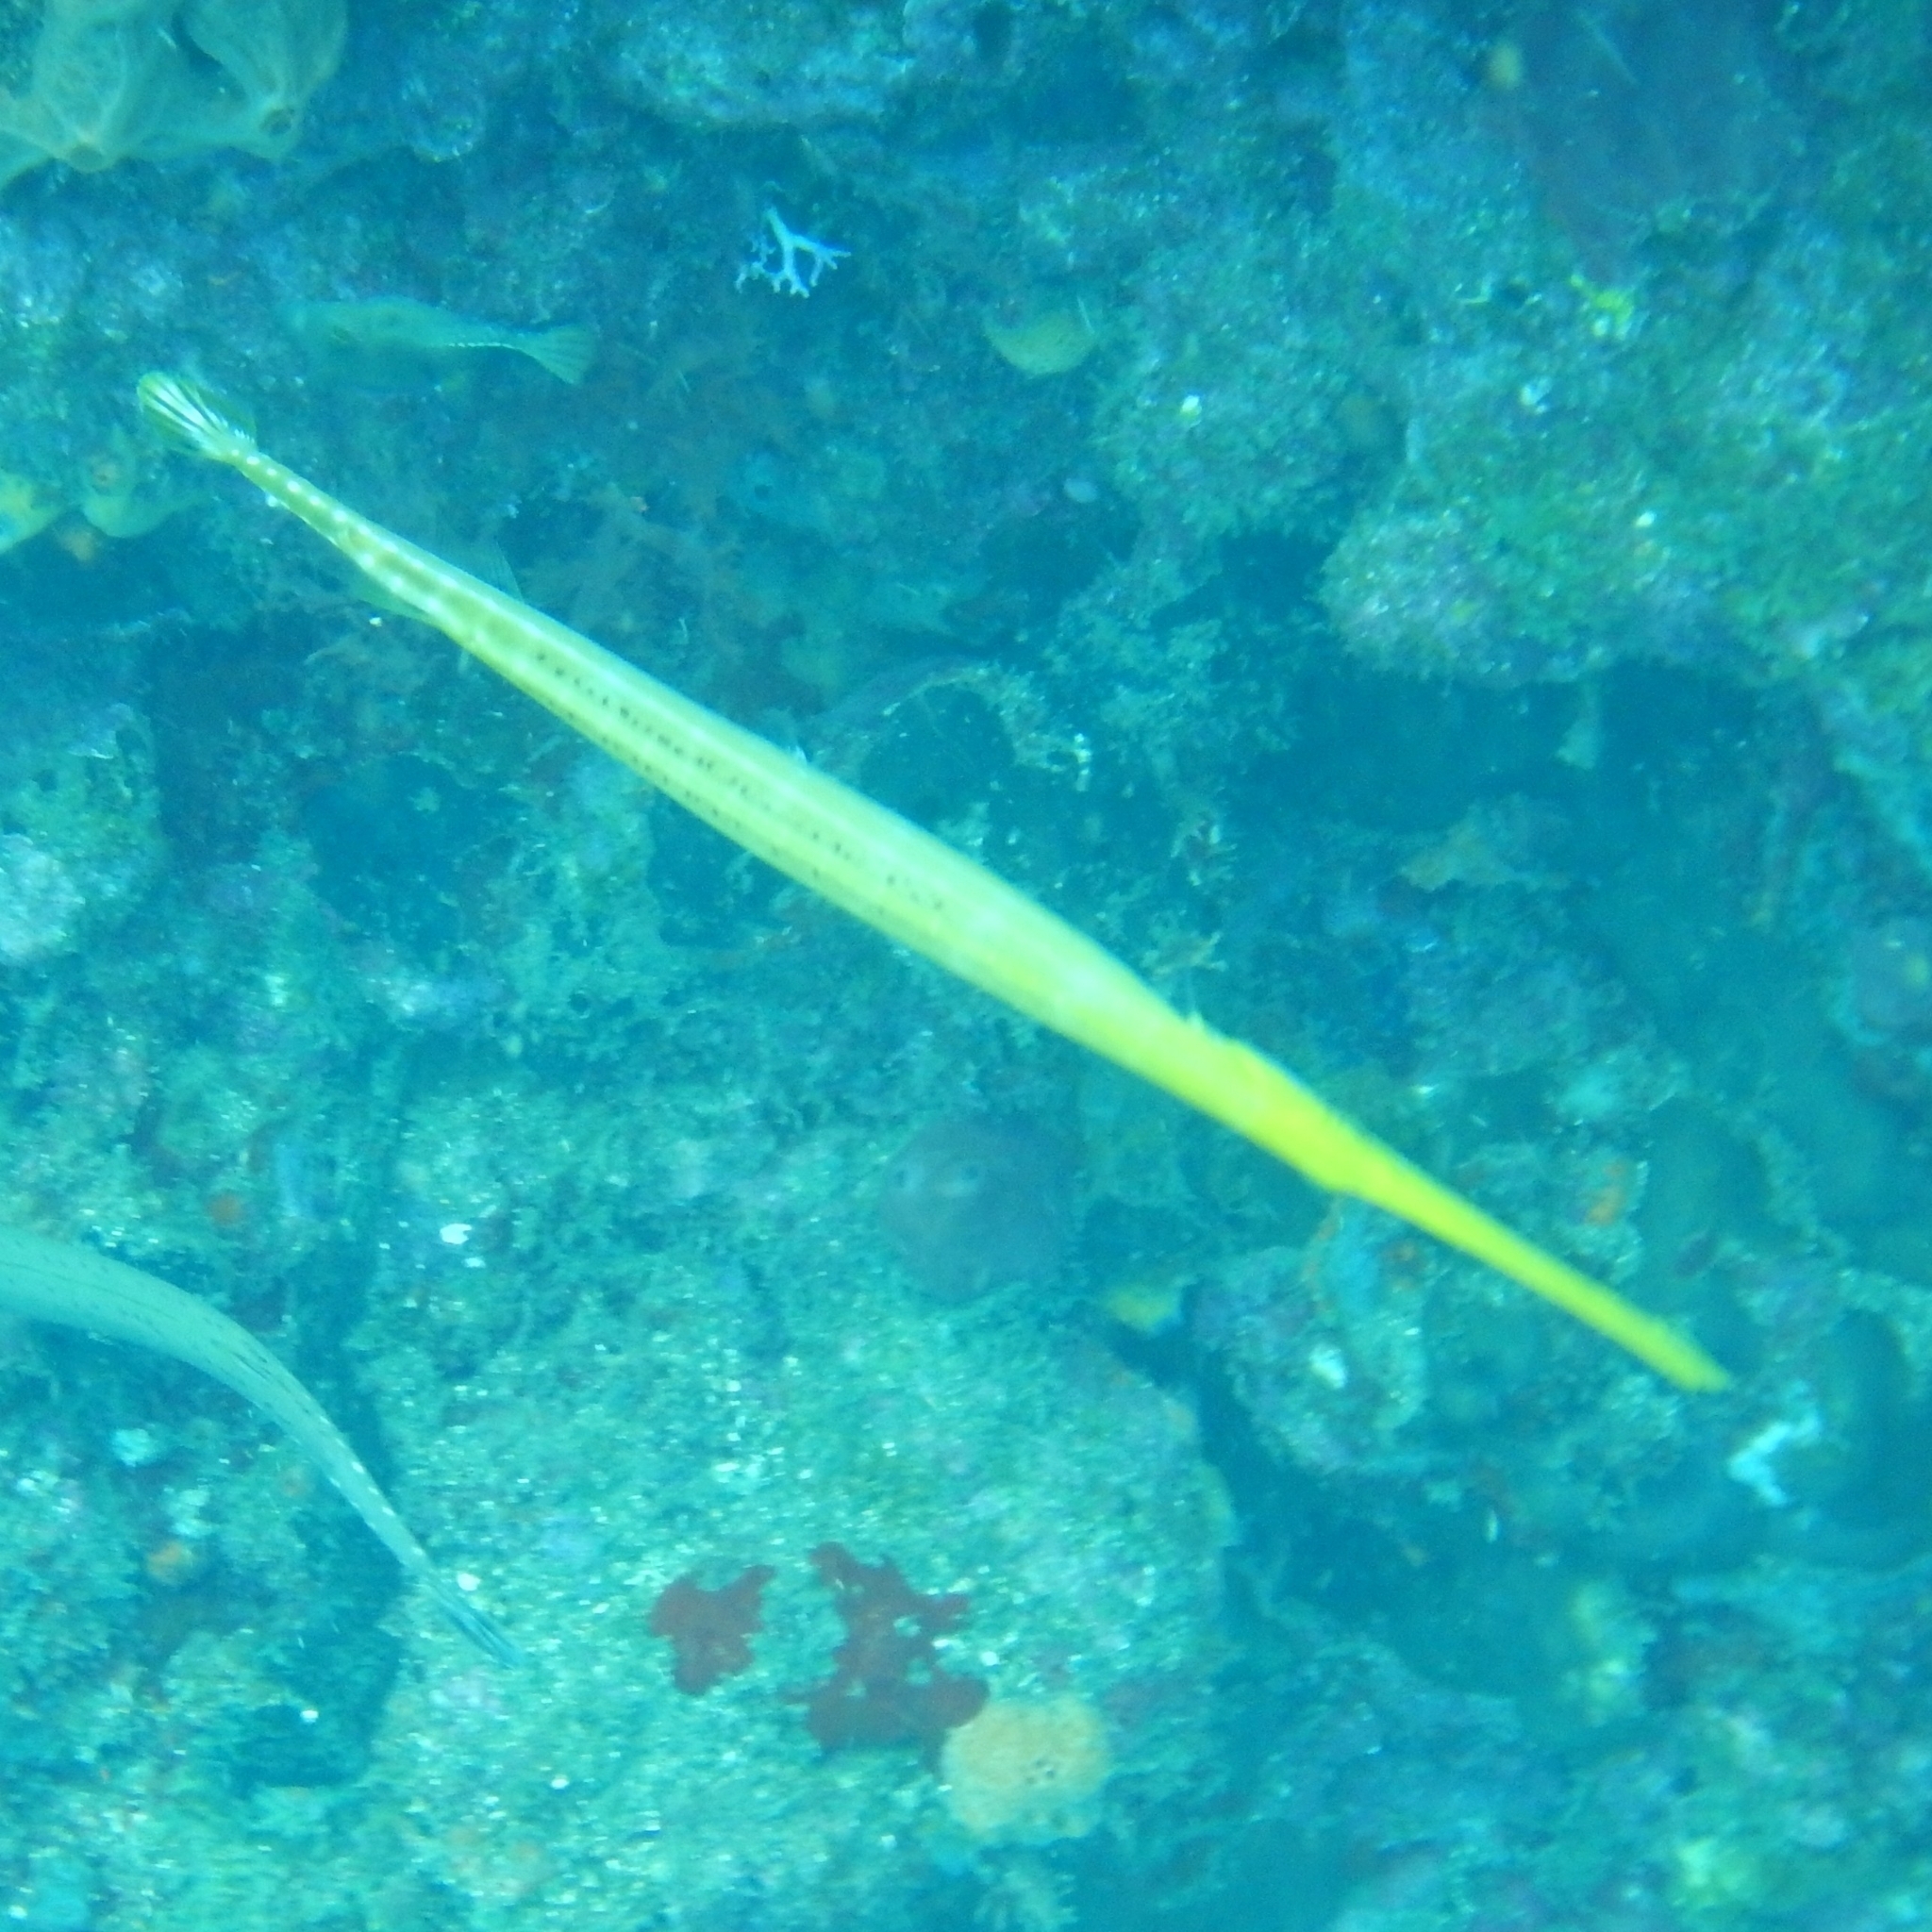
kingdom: Animalia
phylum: Chordata
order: Syngnathiformes
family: Aulostomidae
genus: Aulostomus
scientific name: Aulostomus maculatus
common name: West atlantic trumpetfish
